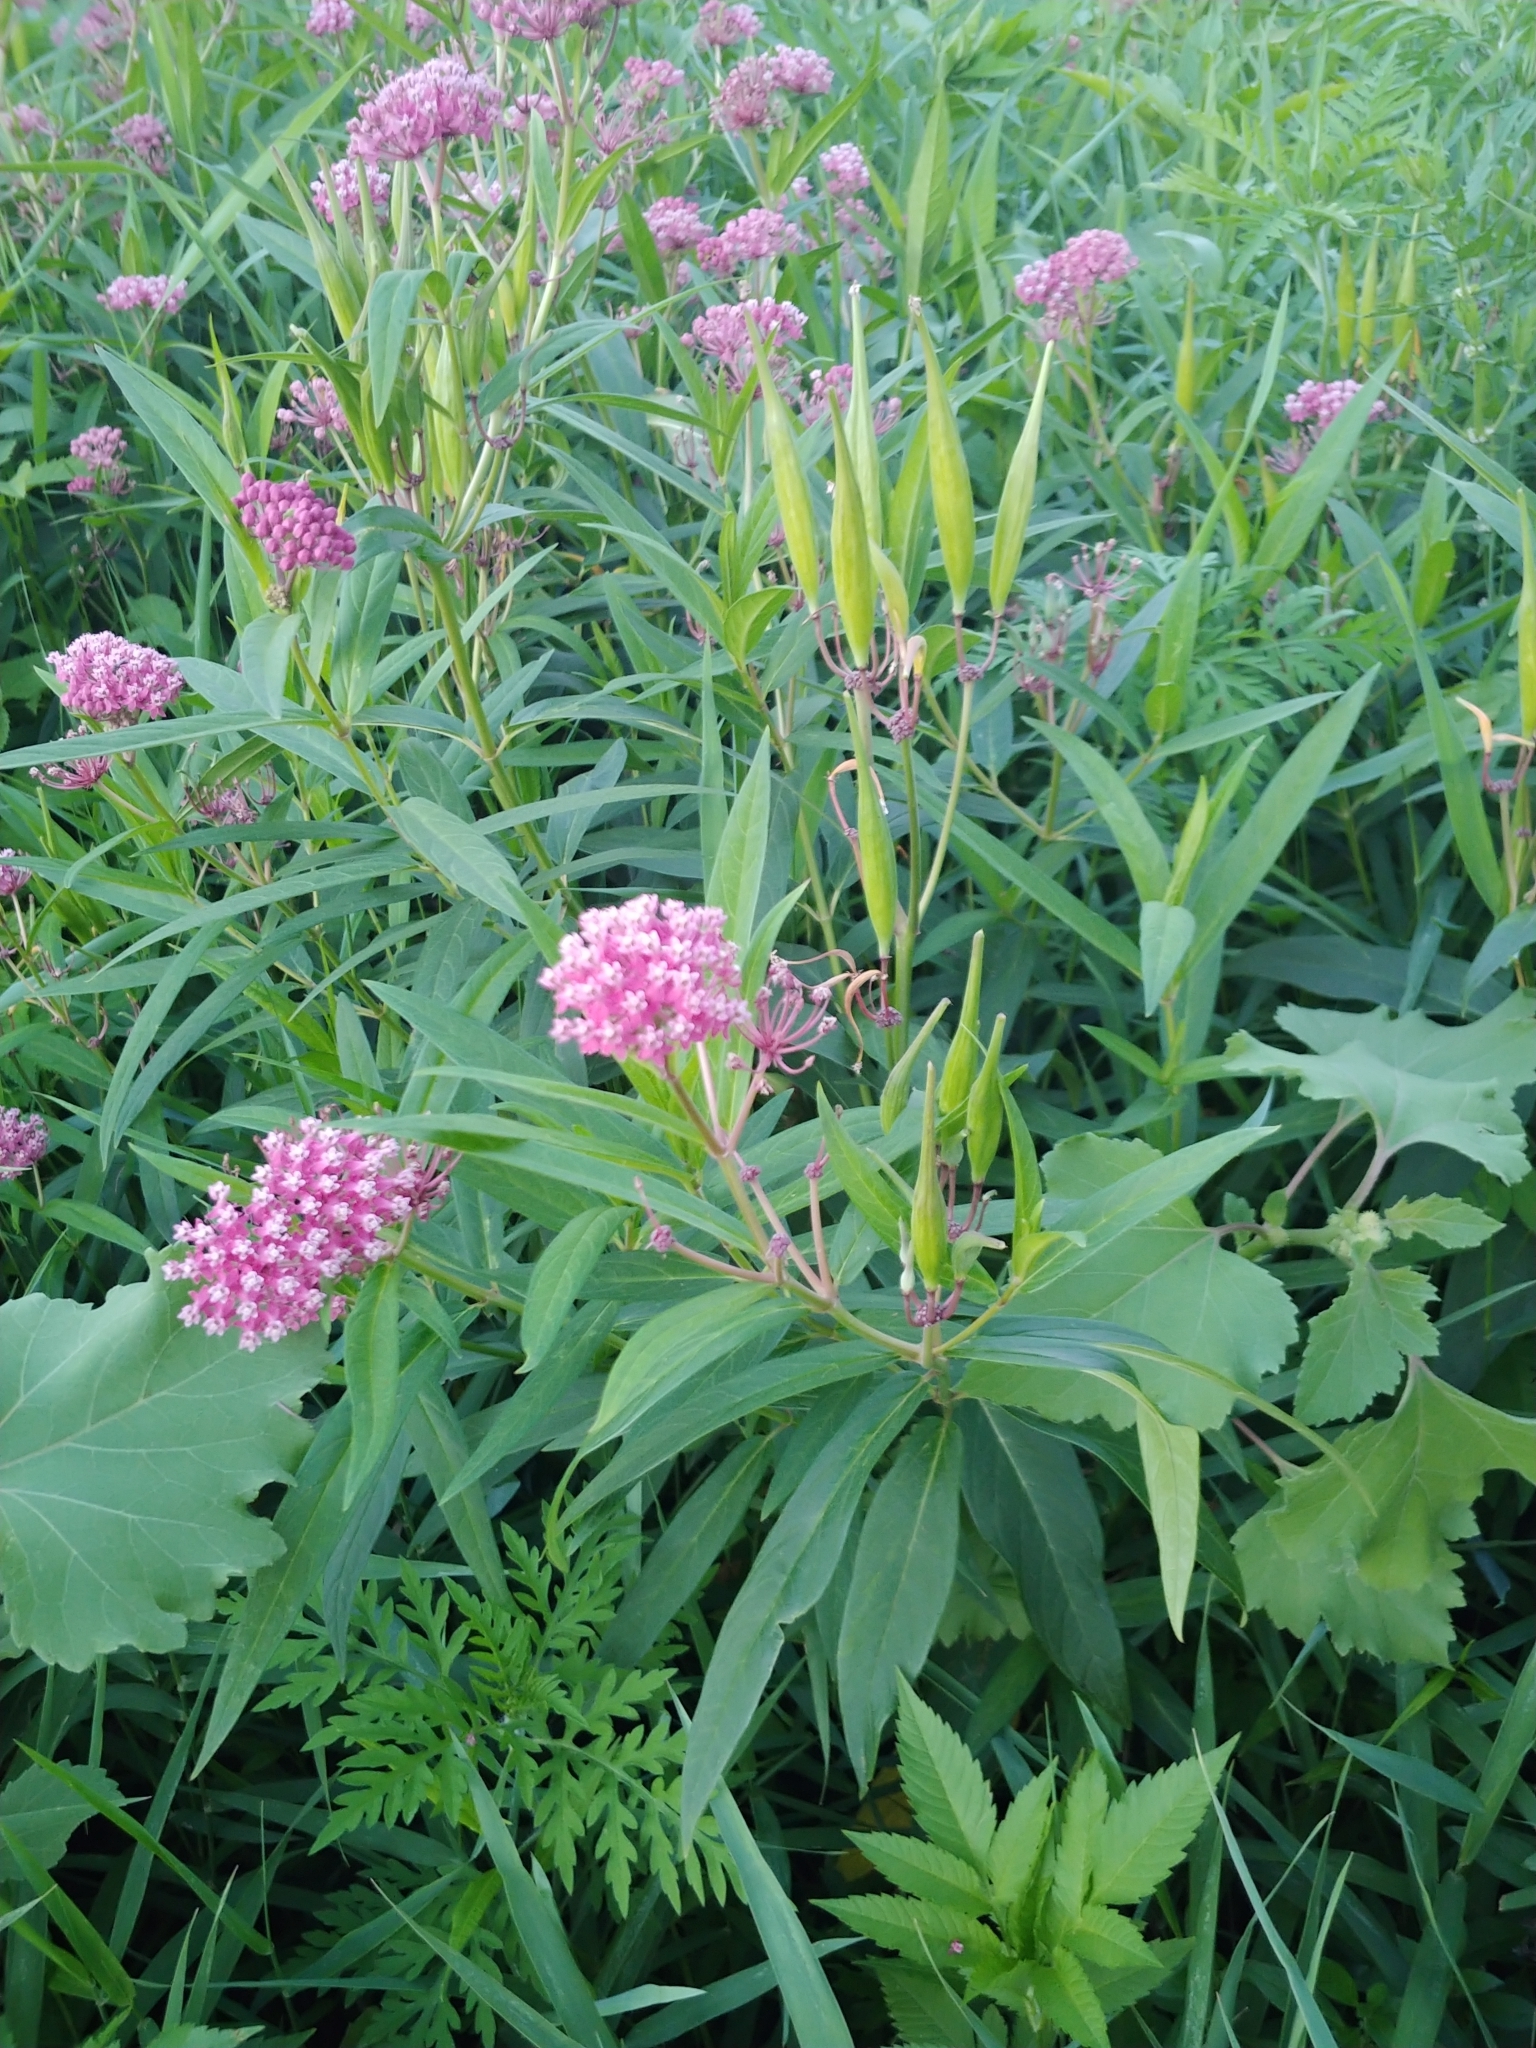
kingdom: Plantae
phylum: Tracheophyta
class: Magnoliopsida
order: Gentianales
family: Apocynaceae
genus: Asclepias
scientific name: Asclepias incarnata
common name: Swamp milkweed
